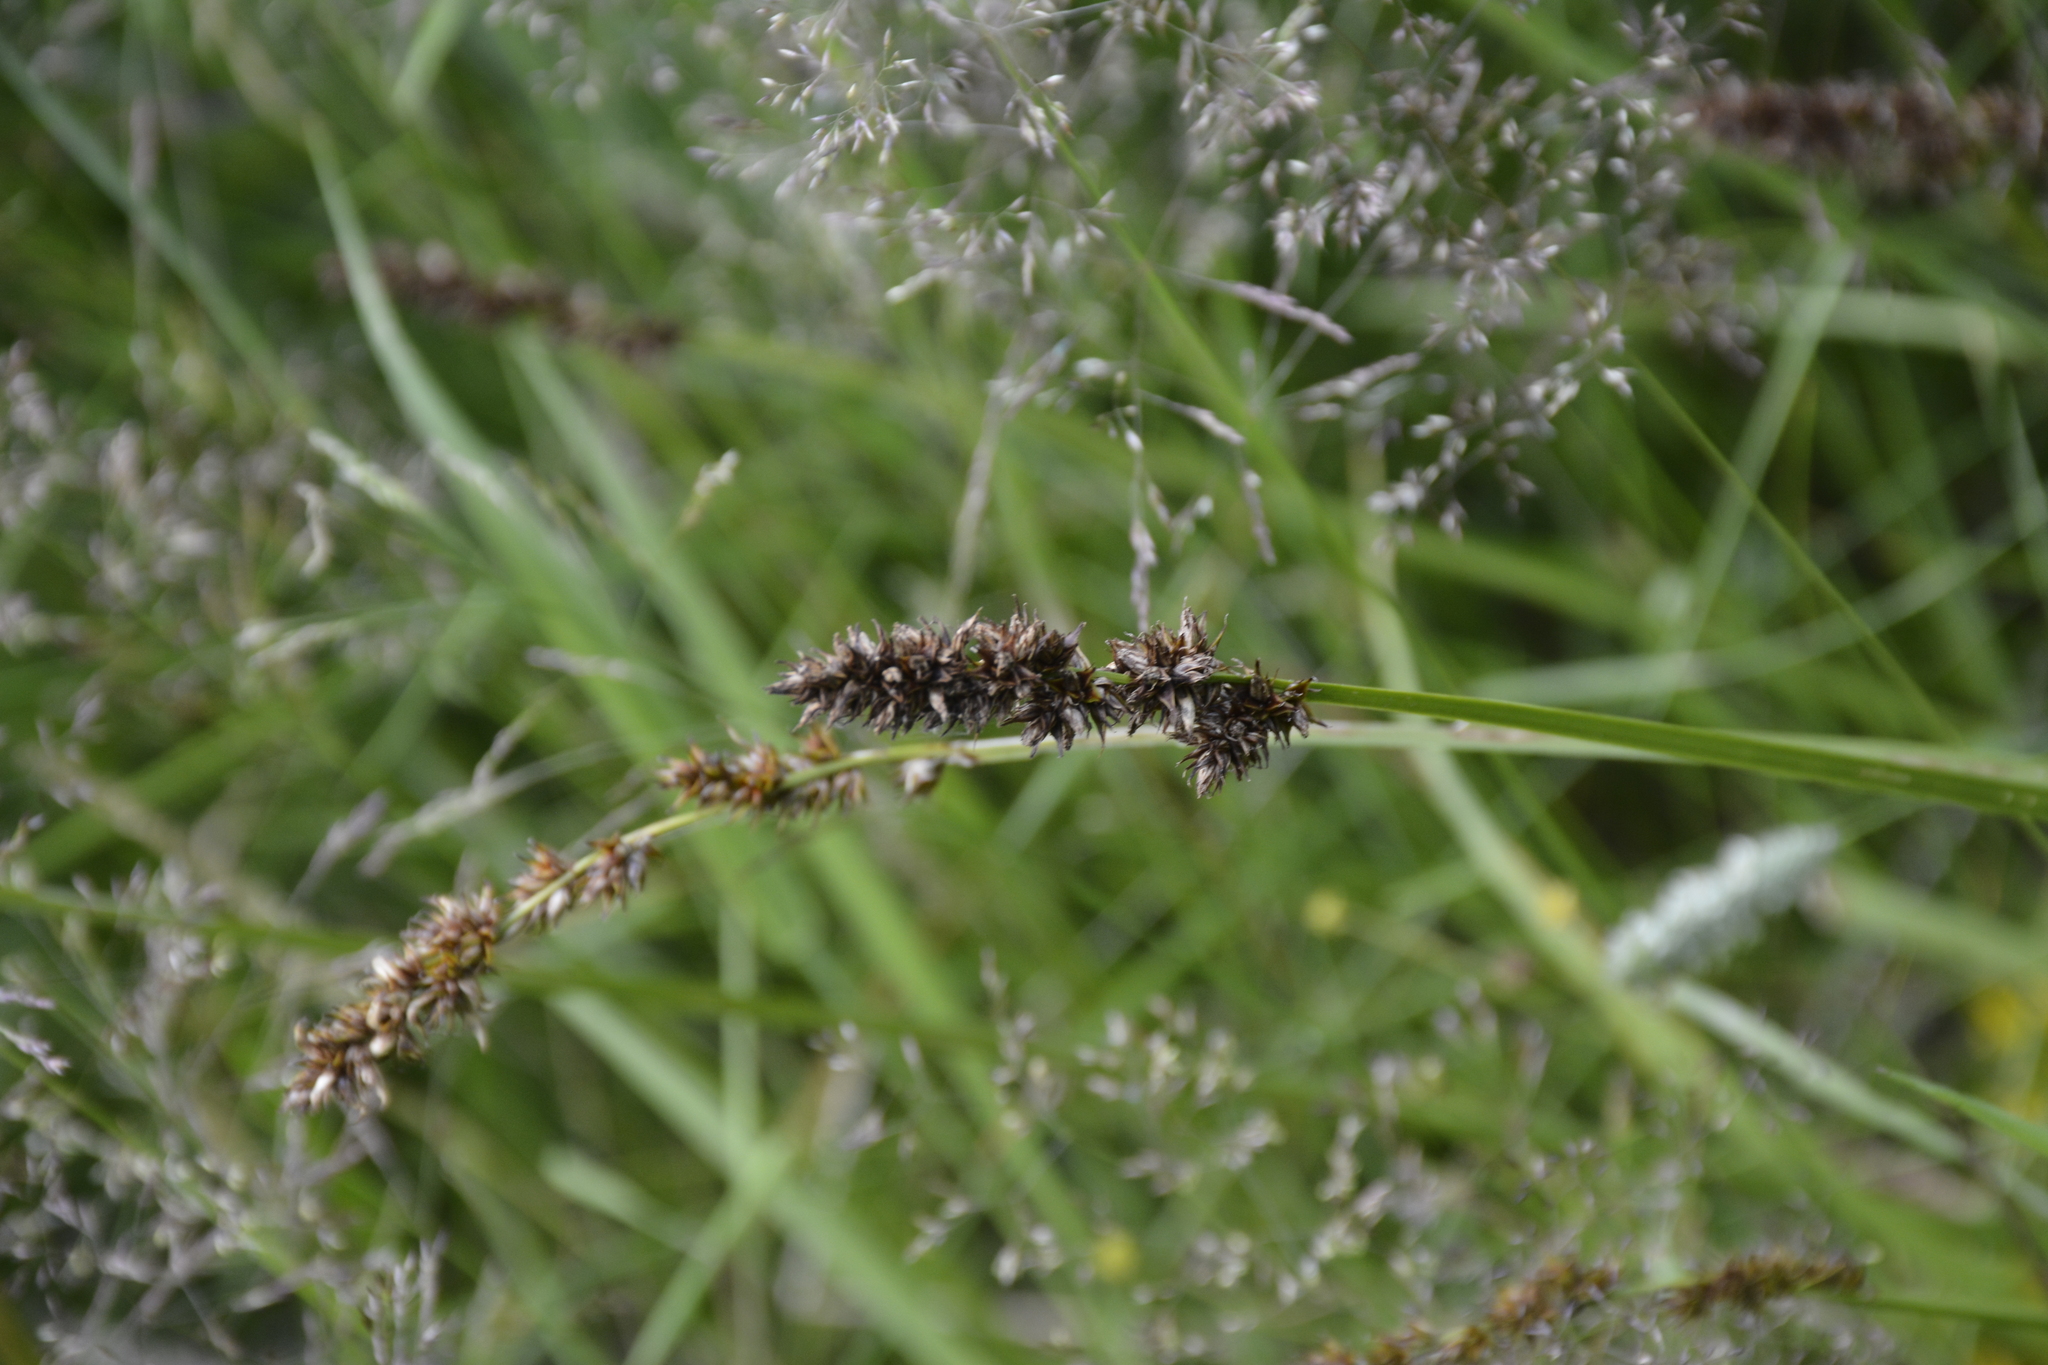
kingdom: Plantae
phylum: Tracheophyta
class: Liliopsida
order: Poales
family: Cyperaceae
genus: Carex
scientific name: Carex vulpina
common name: True fox-sedge
